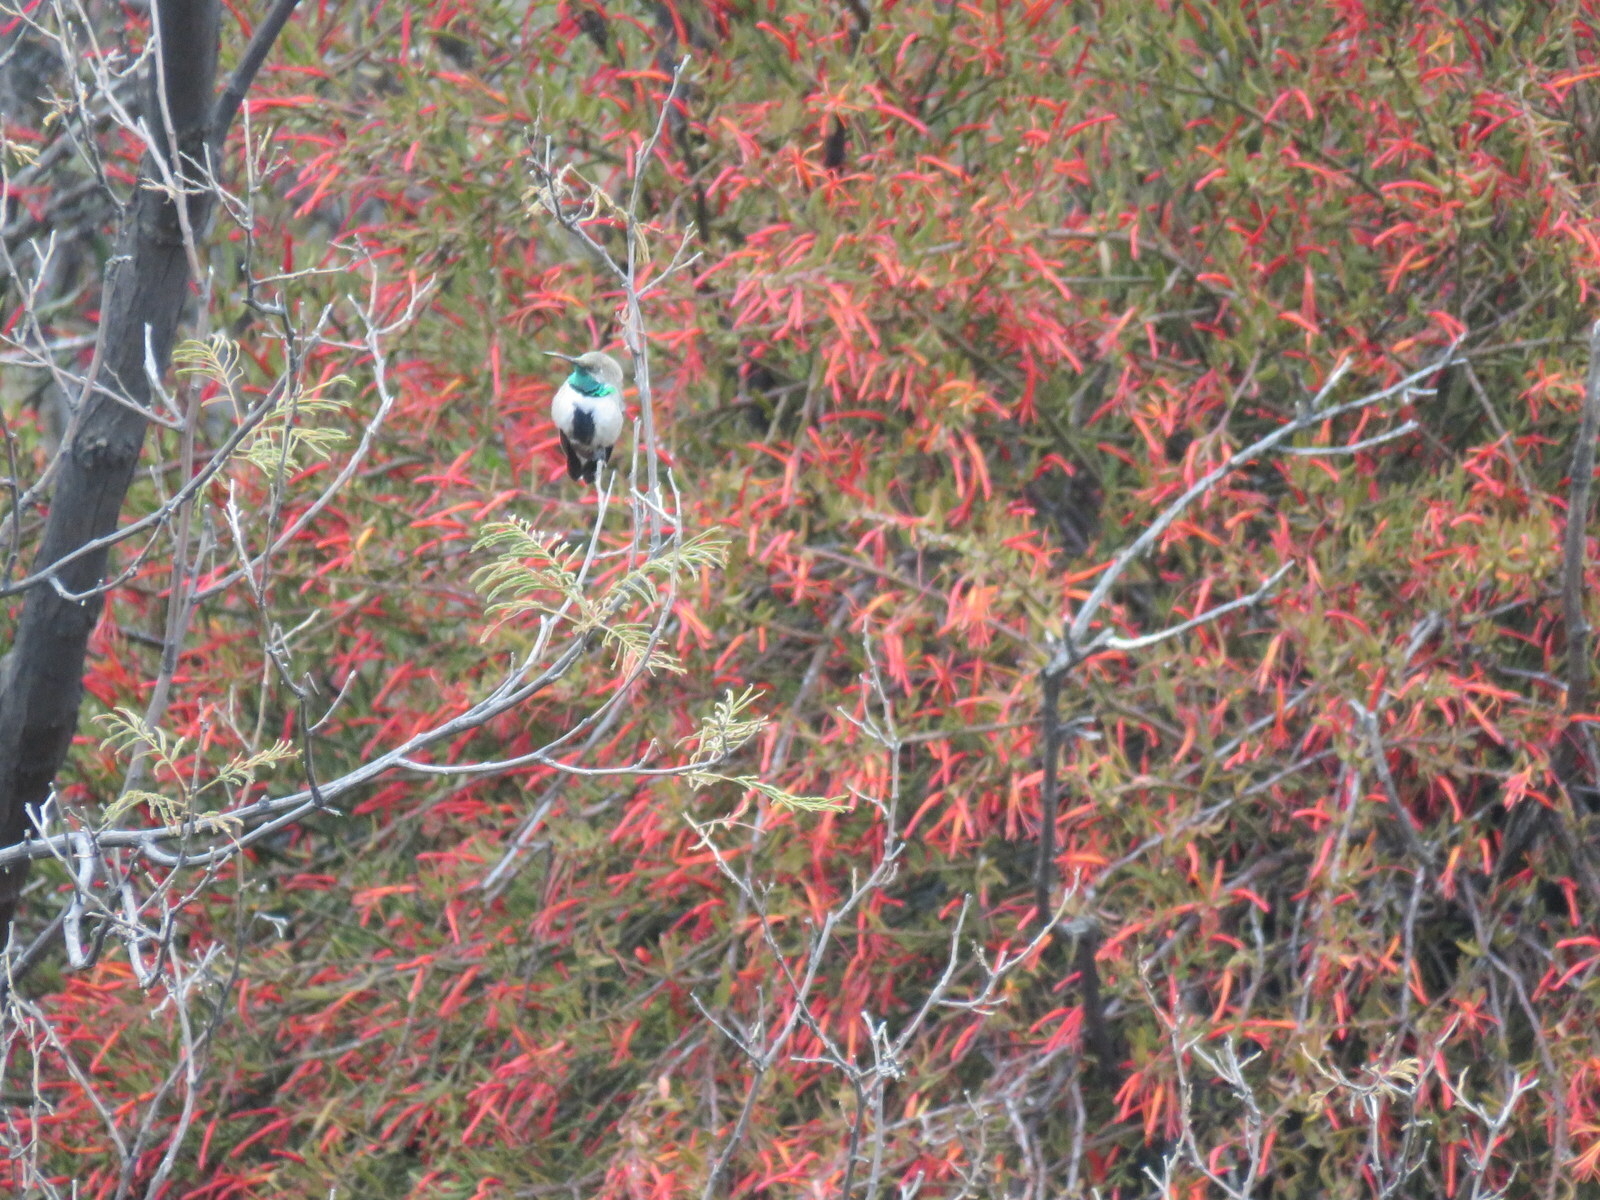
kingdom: Animalia
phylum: Chordata
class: Aves
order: Apodiformes
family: Trochilidae
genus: Oreotrochilus
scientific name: Oreotrochilus leucopleurus
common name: White-sided hillstar
